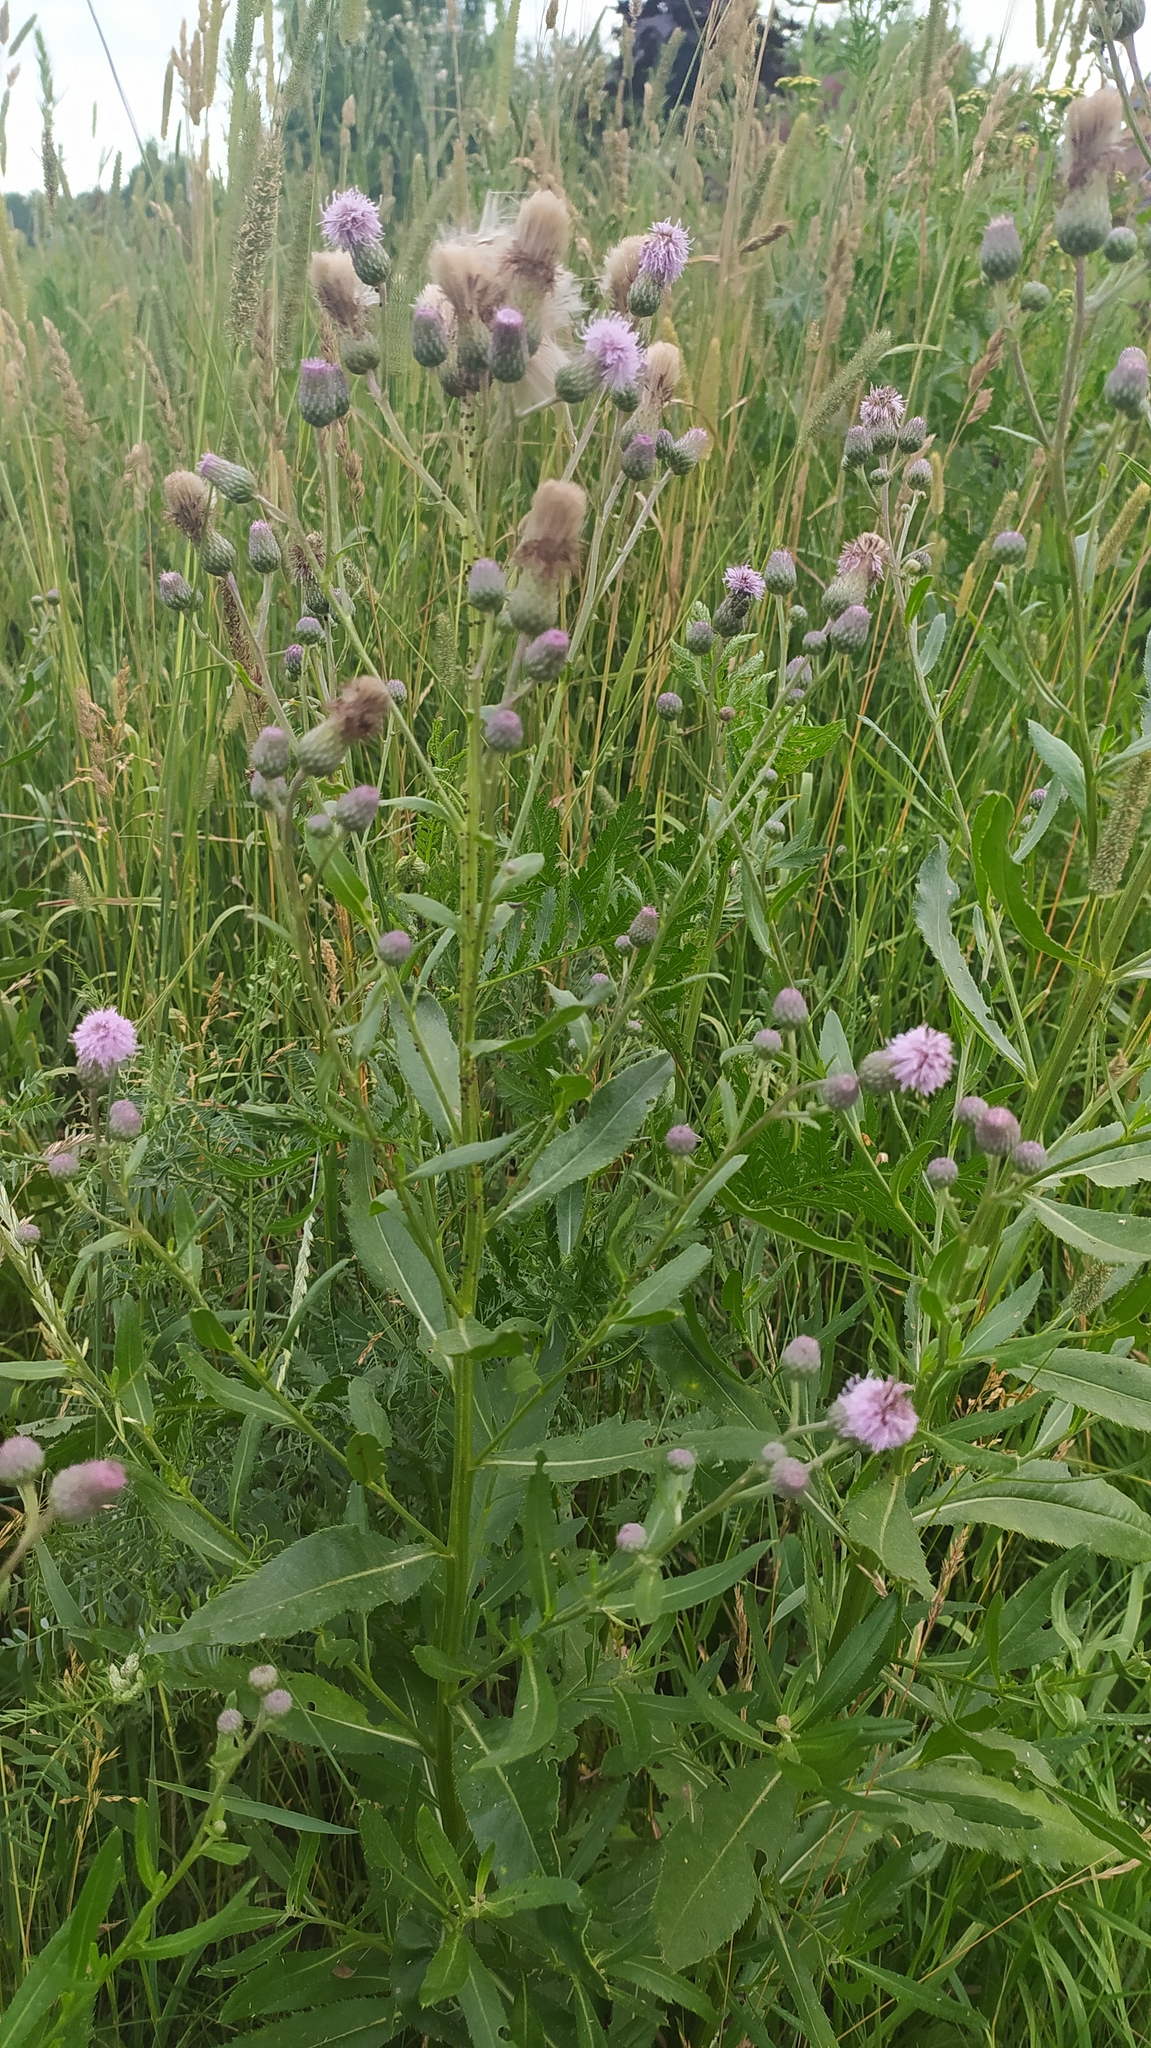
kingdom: Plantae
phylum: Tracheophyta
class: Magnoliopsida
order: Asterales
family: Asteraceae
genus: Cirsium
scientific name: Cirsium arvense
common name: Creeping thistle
